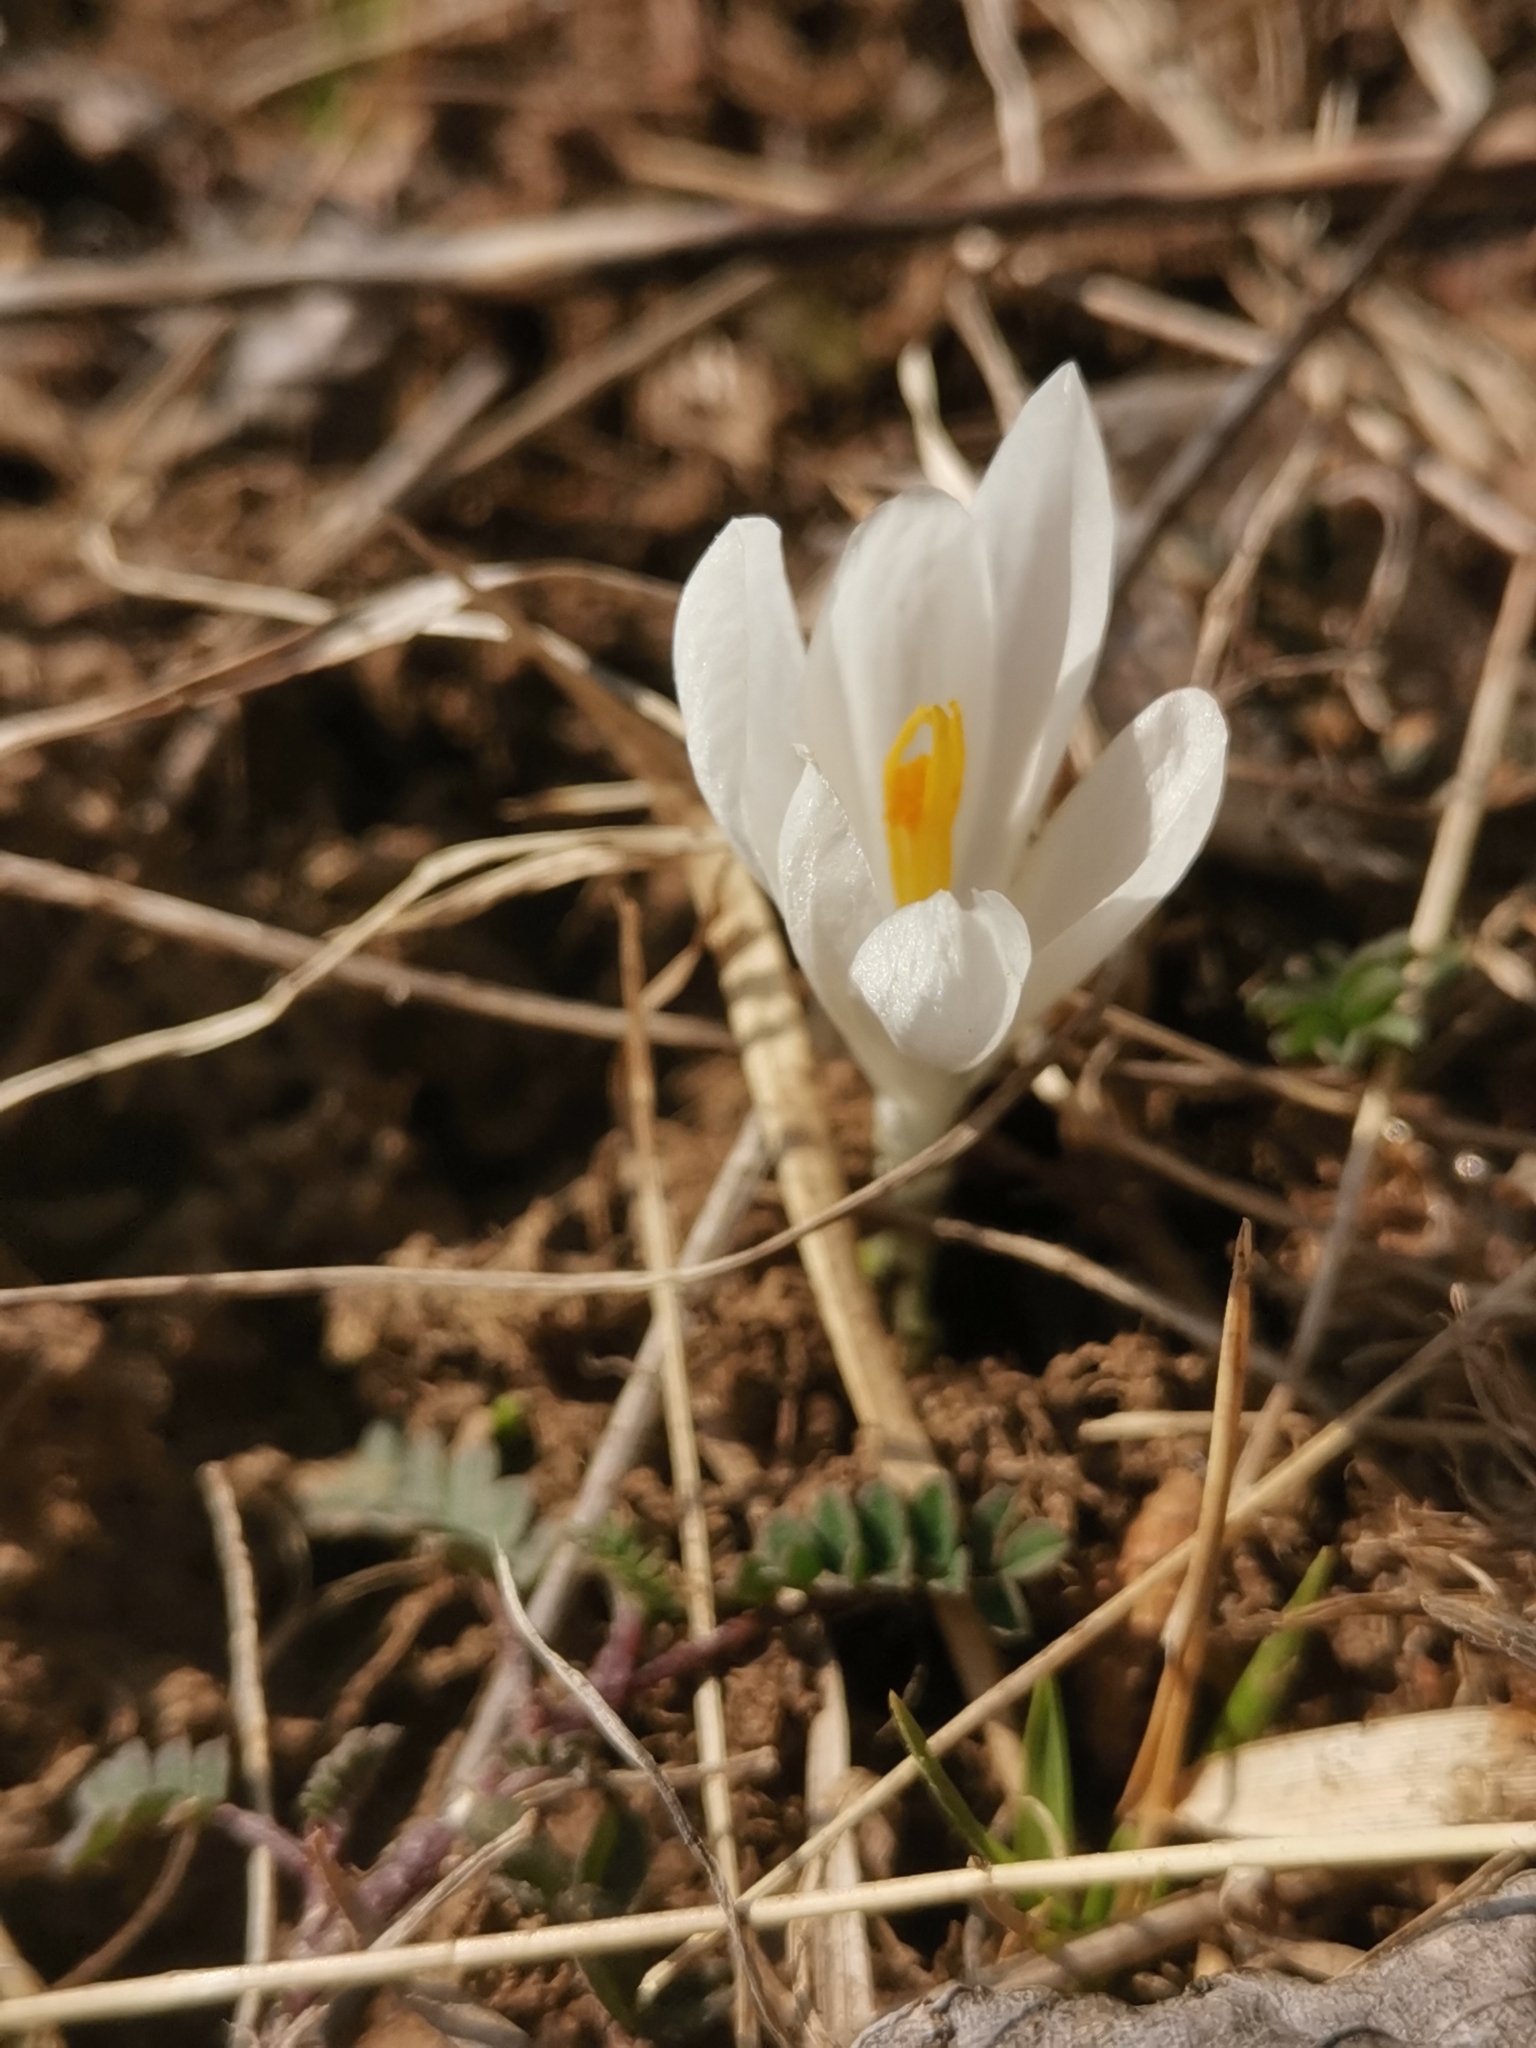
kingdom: Plantae
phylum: Tracheophyta
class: Liliopsida
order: Asparagales
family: Iridaceae
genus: Crocus
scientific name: Crocus vernus
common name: Spring crocus
